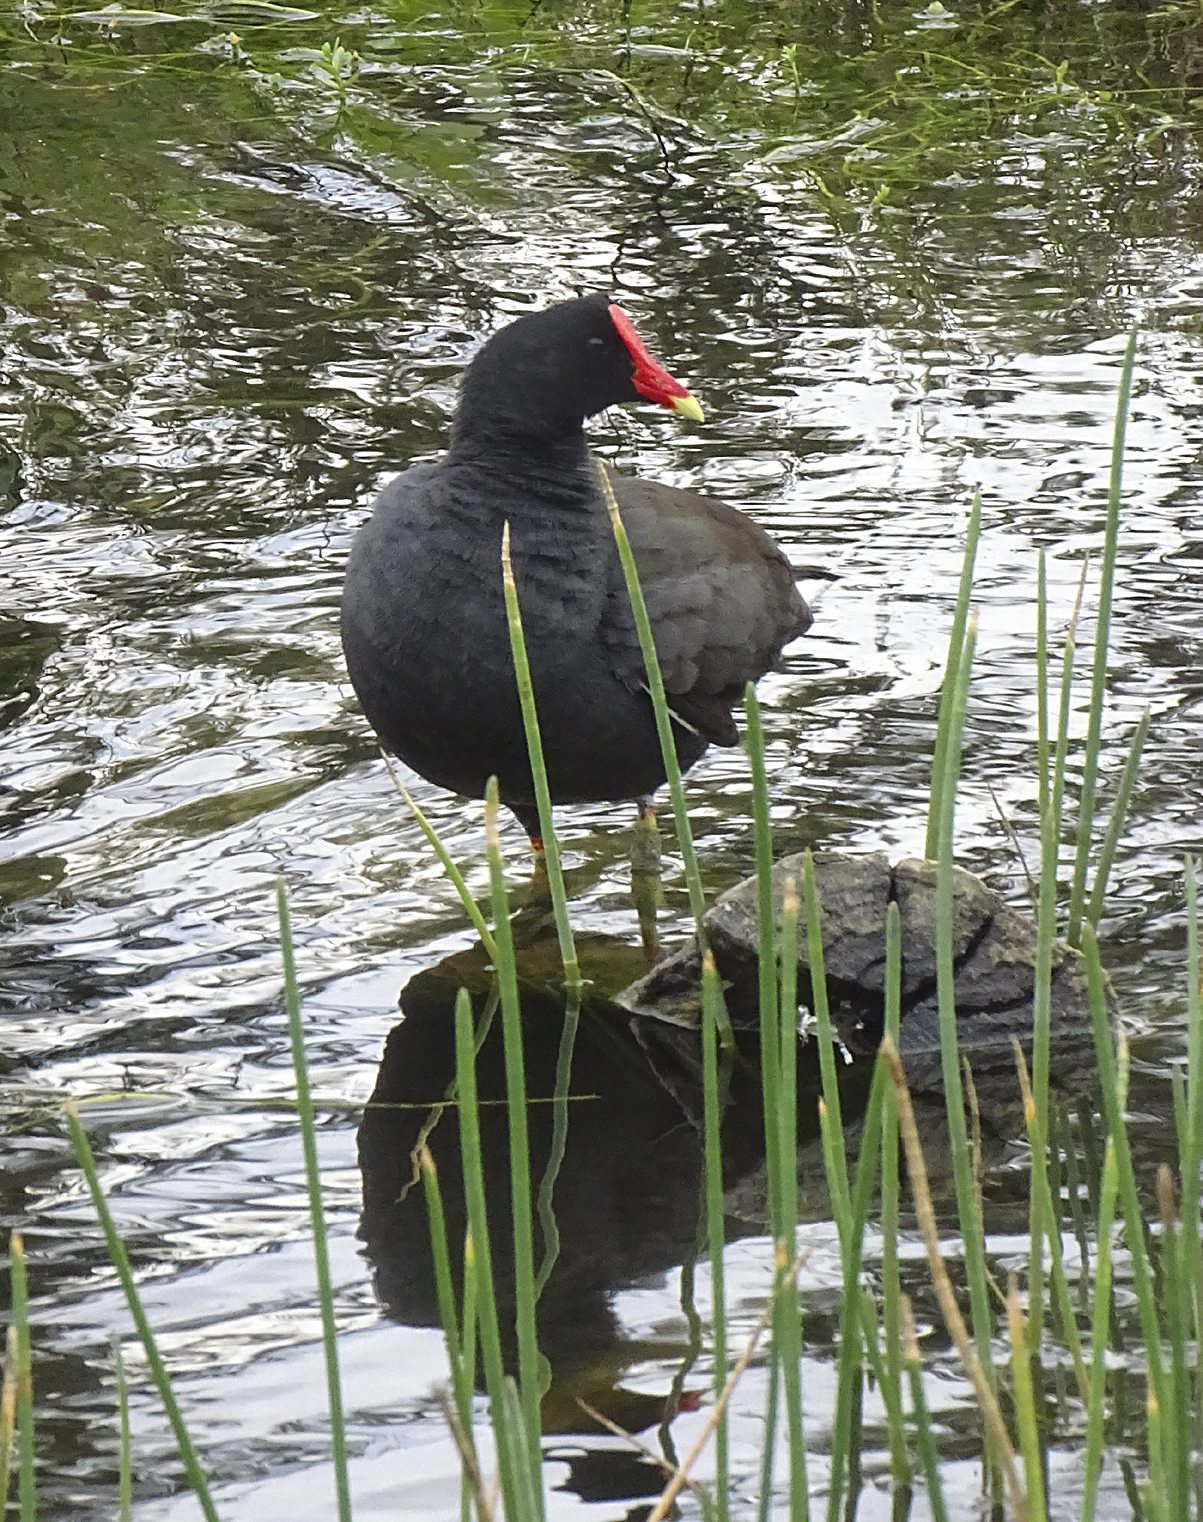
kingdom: Animalia
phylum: Chordata
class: Aves
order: Gruiformes
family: Rallidae
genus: Gallinula
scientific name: Gallinula chloropus
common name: Common moorhen
